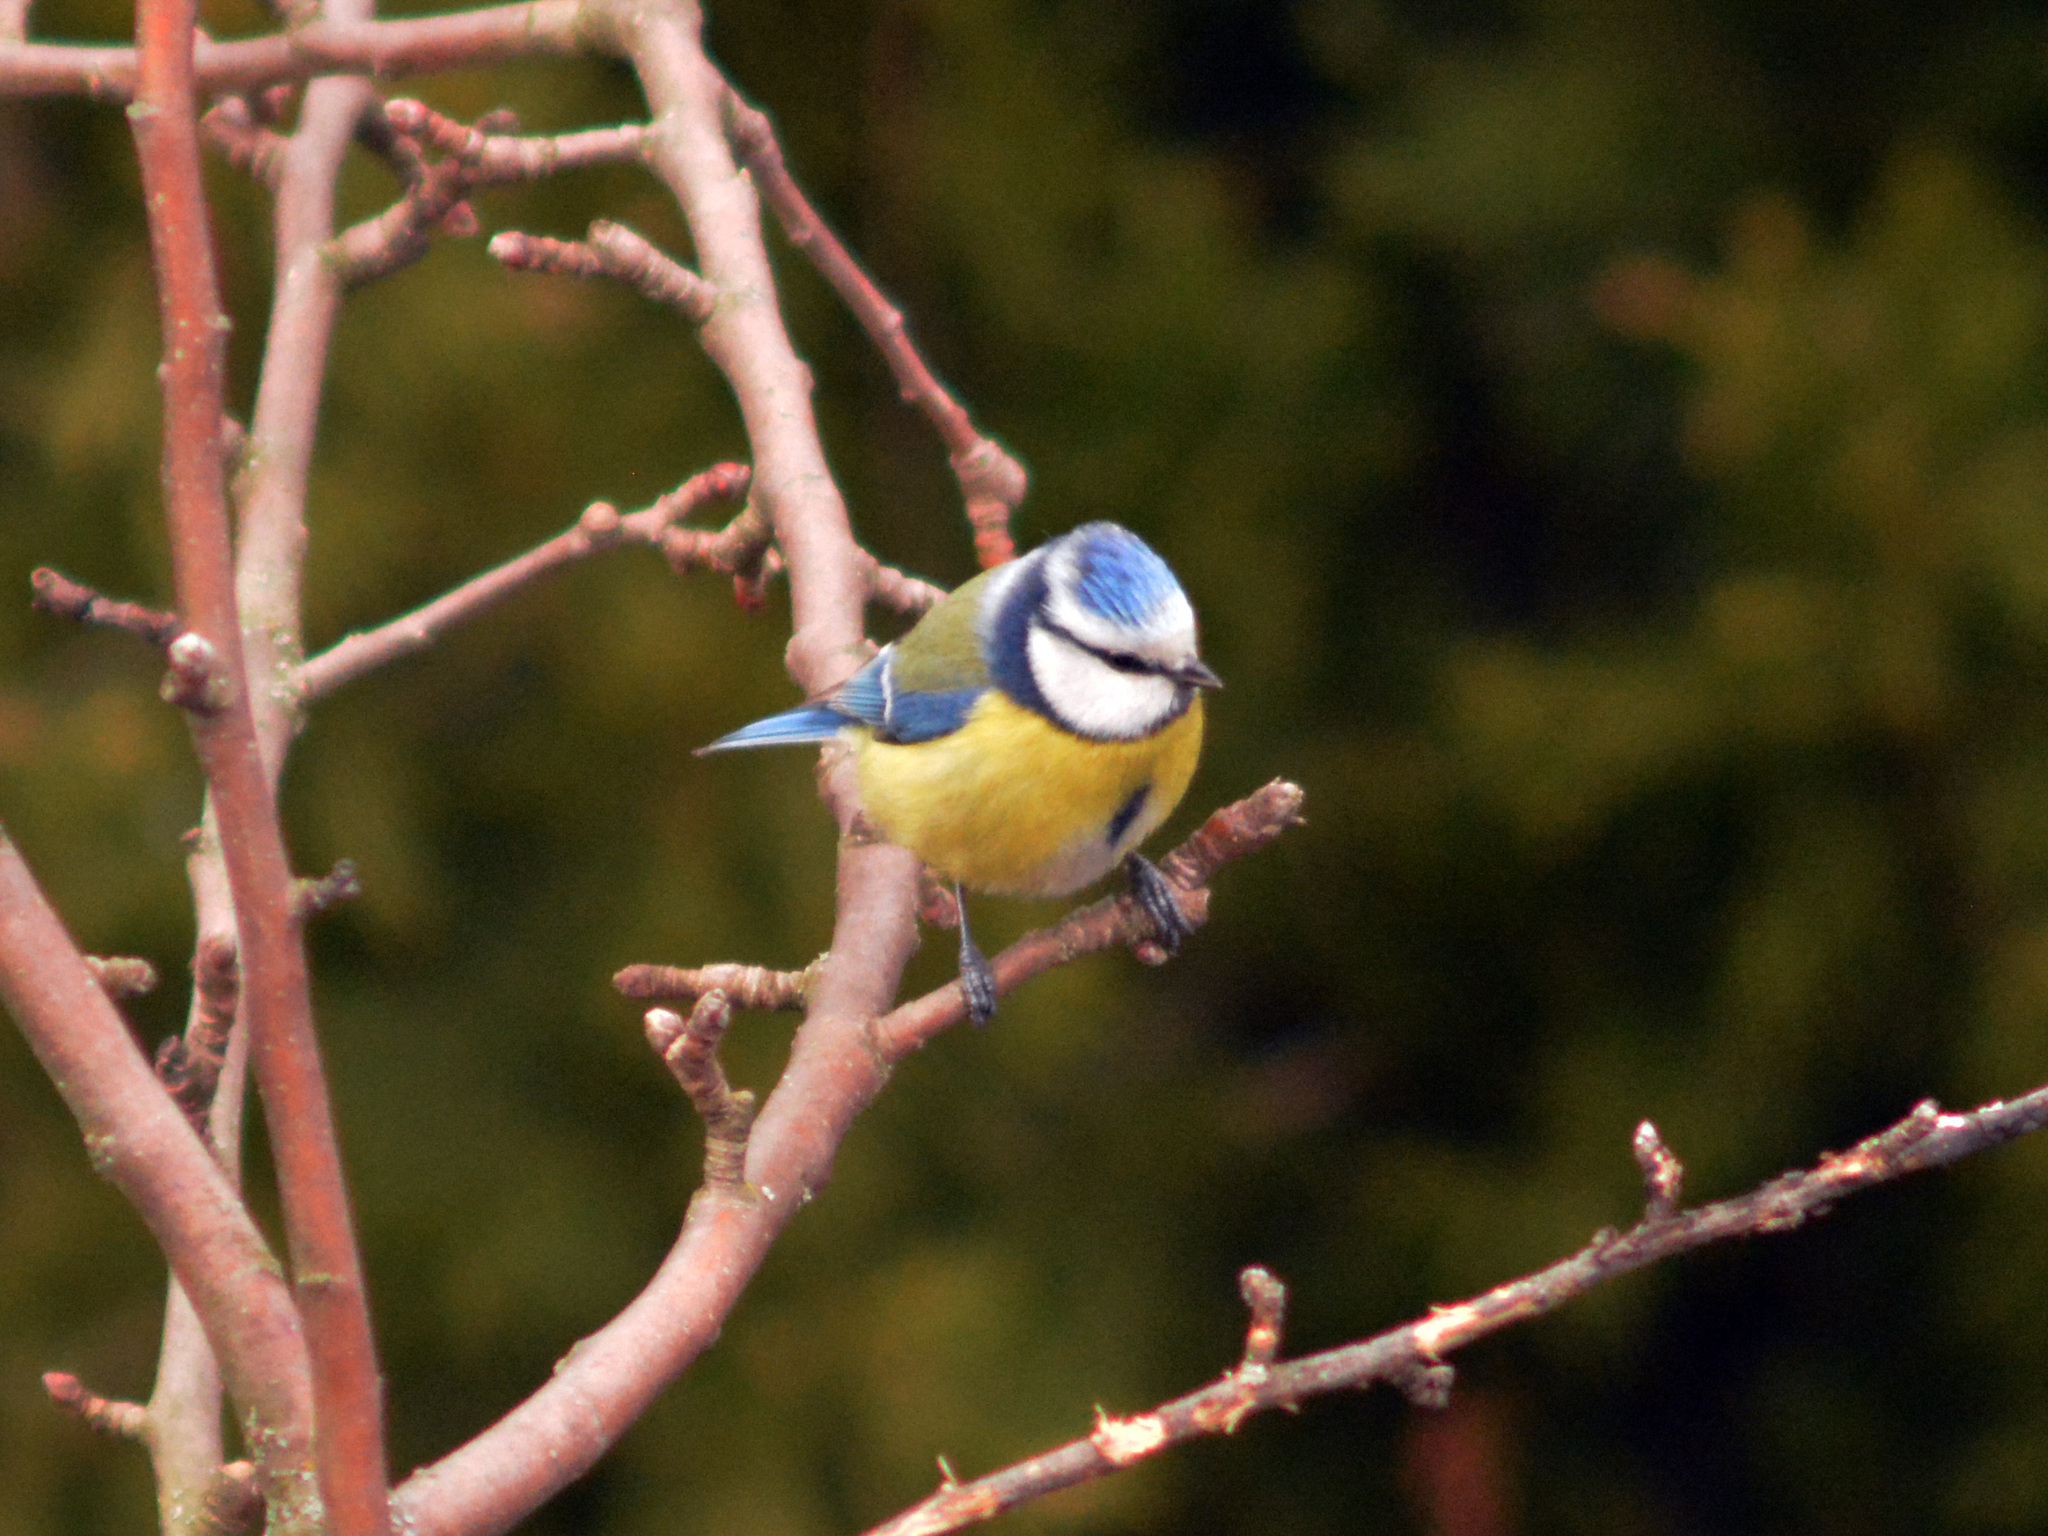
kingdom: Animalia
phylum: Chordata
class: Aves
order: Passeriformes
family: Paridae
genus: Cyanistes
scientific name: Cyanistes caeruleus
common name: Eurasian blue tit
